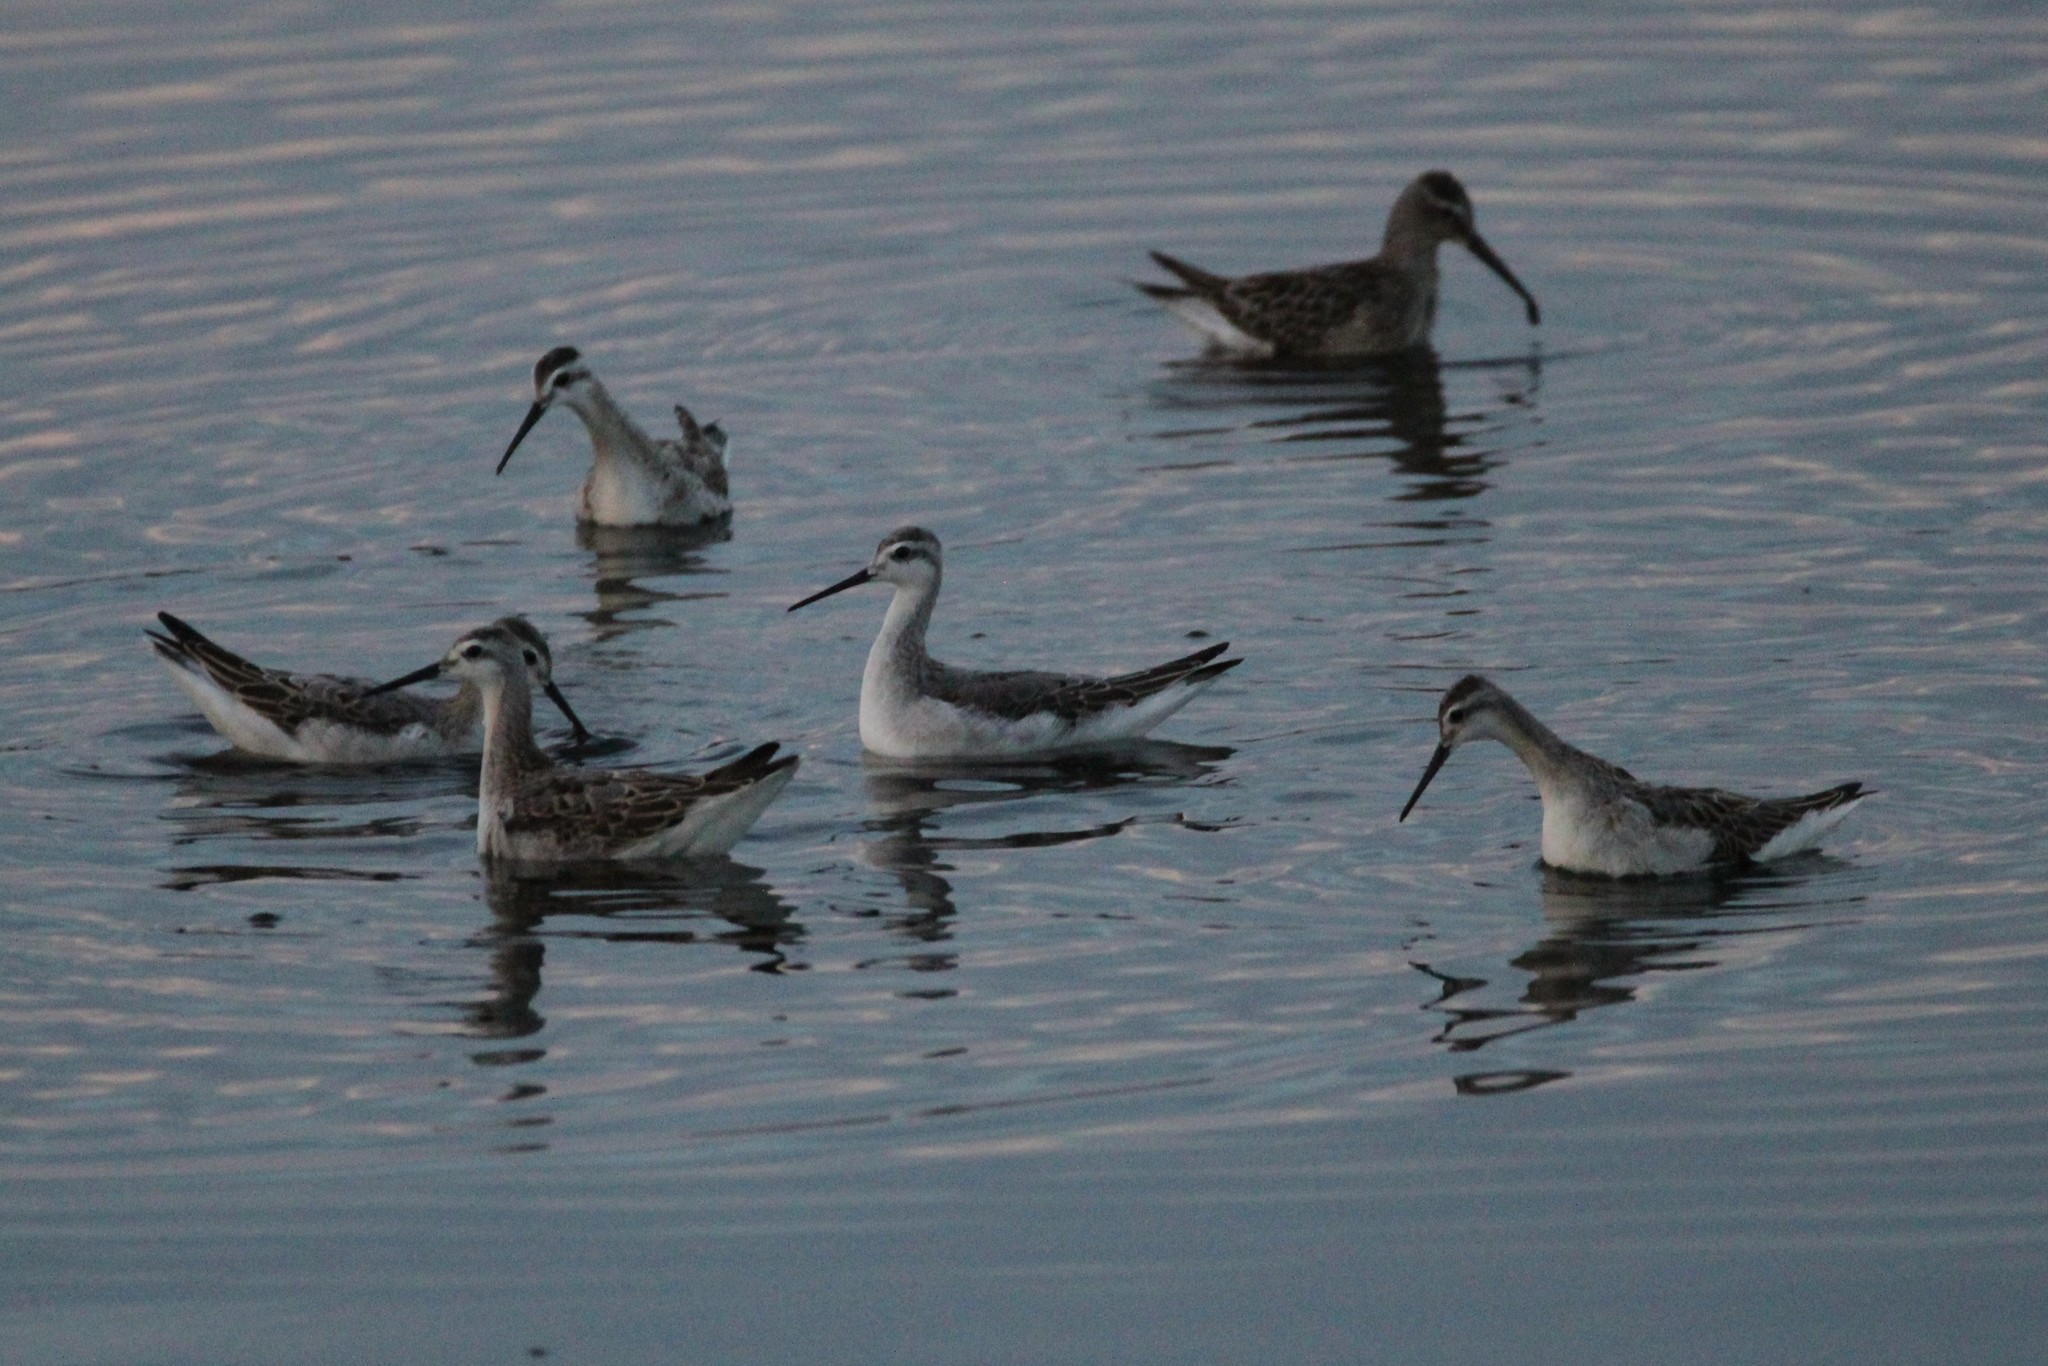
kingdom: Animalia
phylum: Chordata
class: Aves
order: Charadriiformes
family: Scolopacidae
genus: Phalaropus
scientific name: Phalaropus tricolor
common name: Wilson's phalarope
